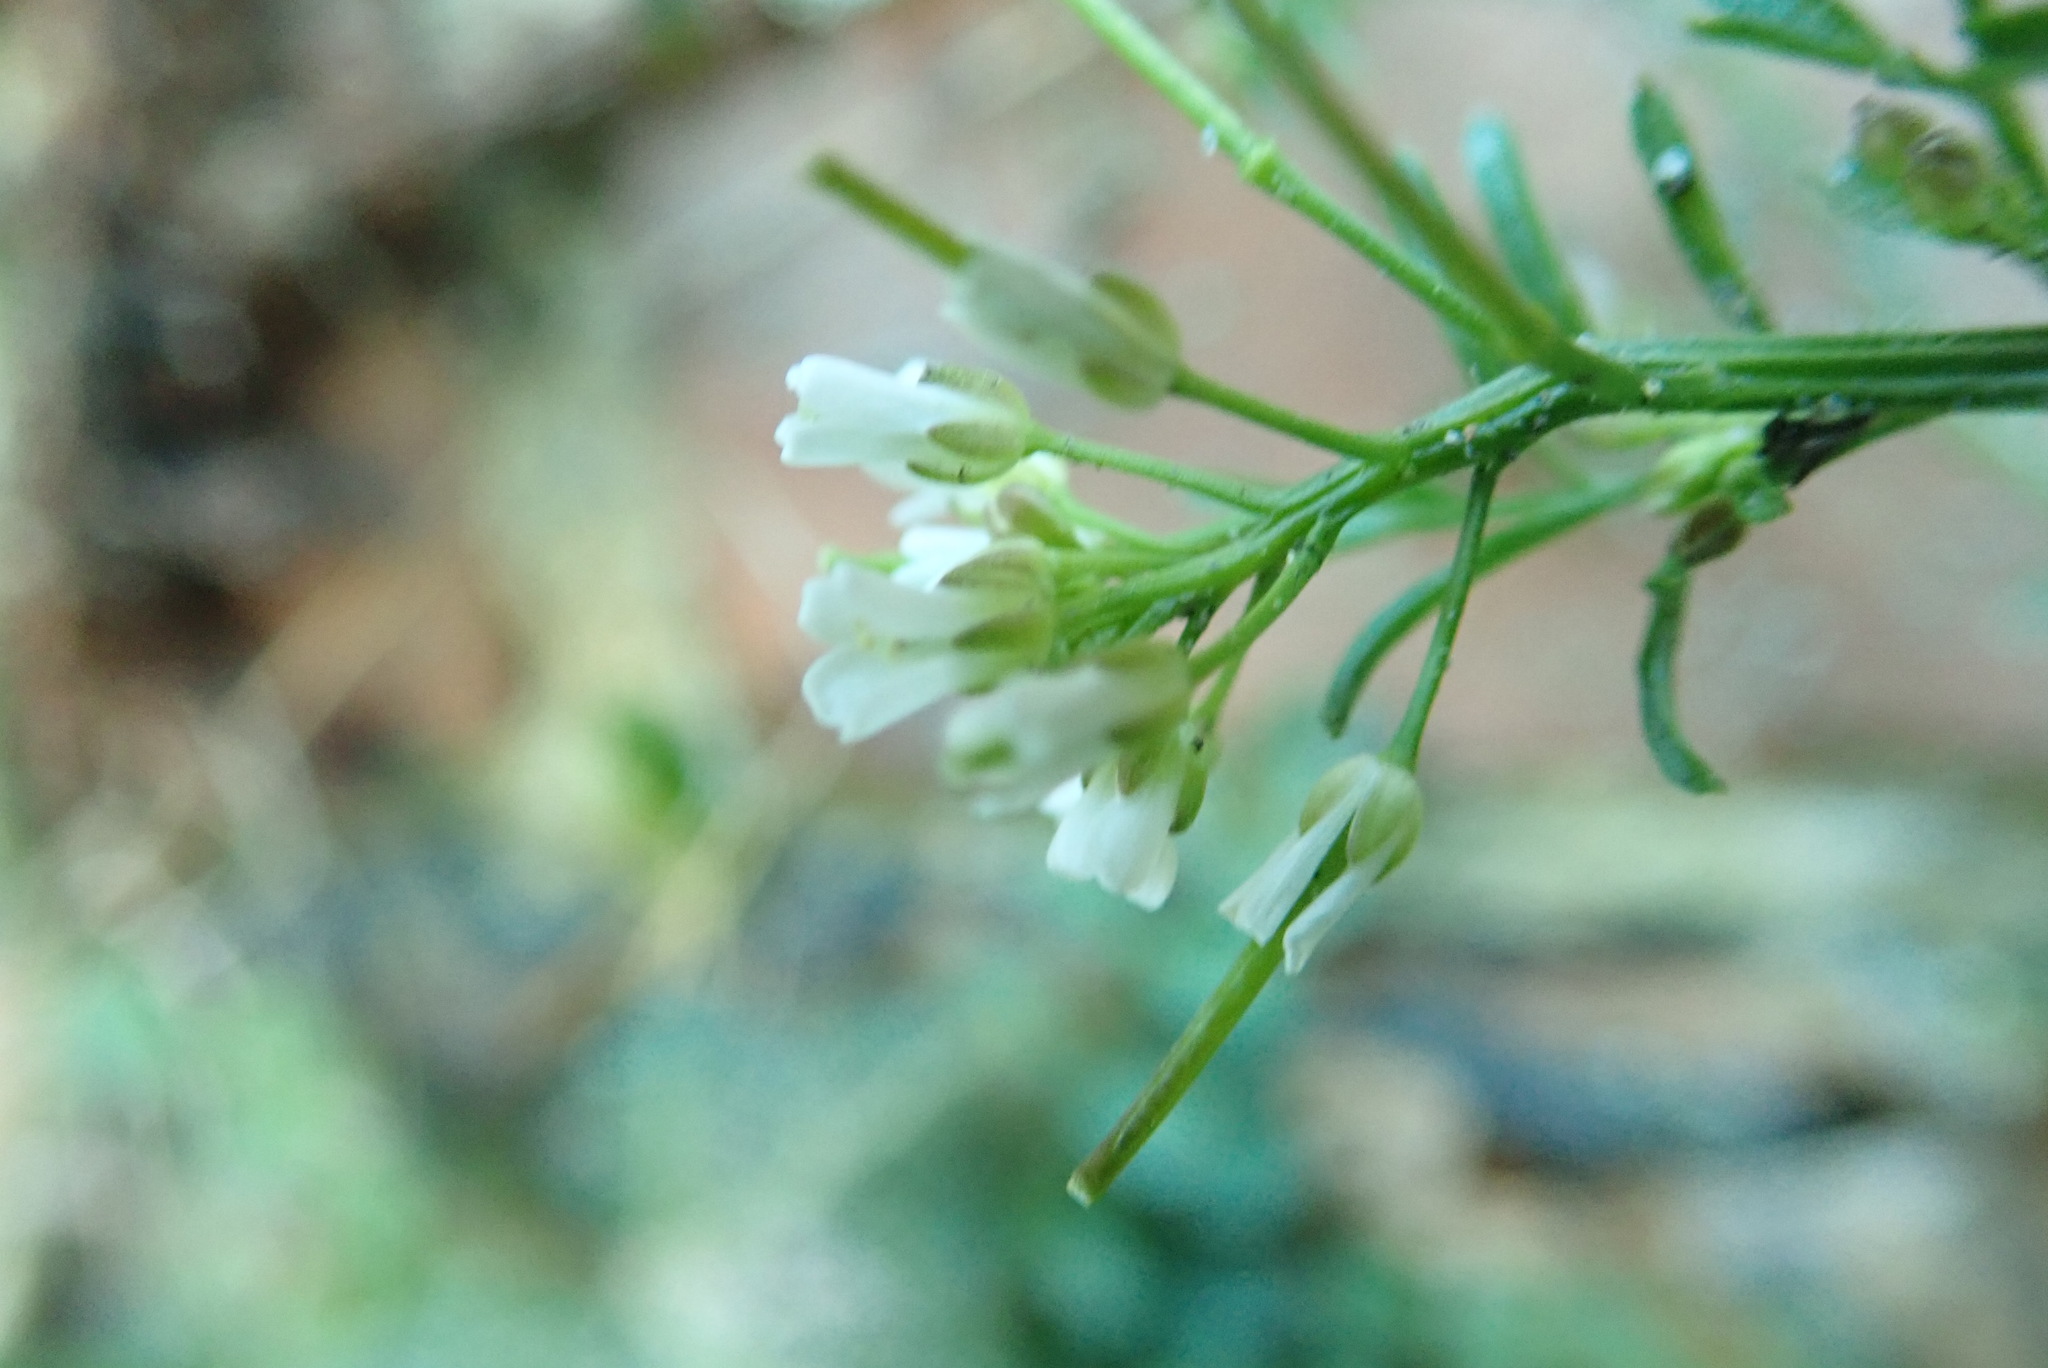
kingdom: Plantae
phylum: Tracheophyta
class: Magnoliopsida
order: Brassicales
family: Brassicaceae
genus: Cardamine
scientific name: Cardamine hirsuta
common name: Hairy bittercress
